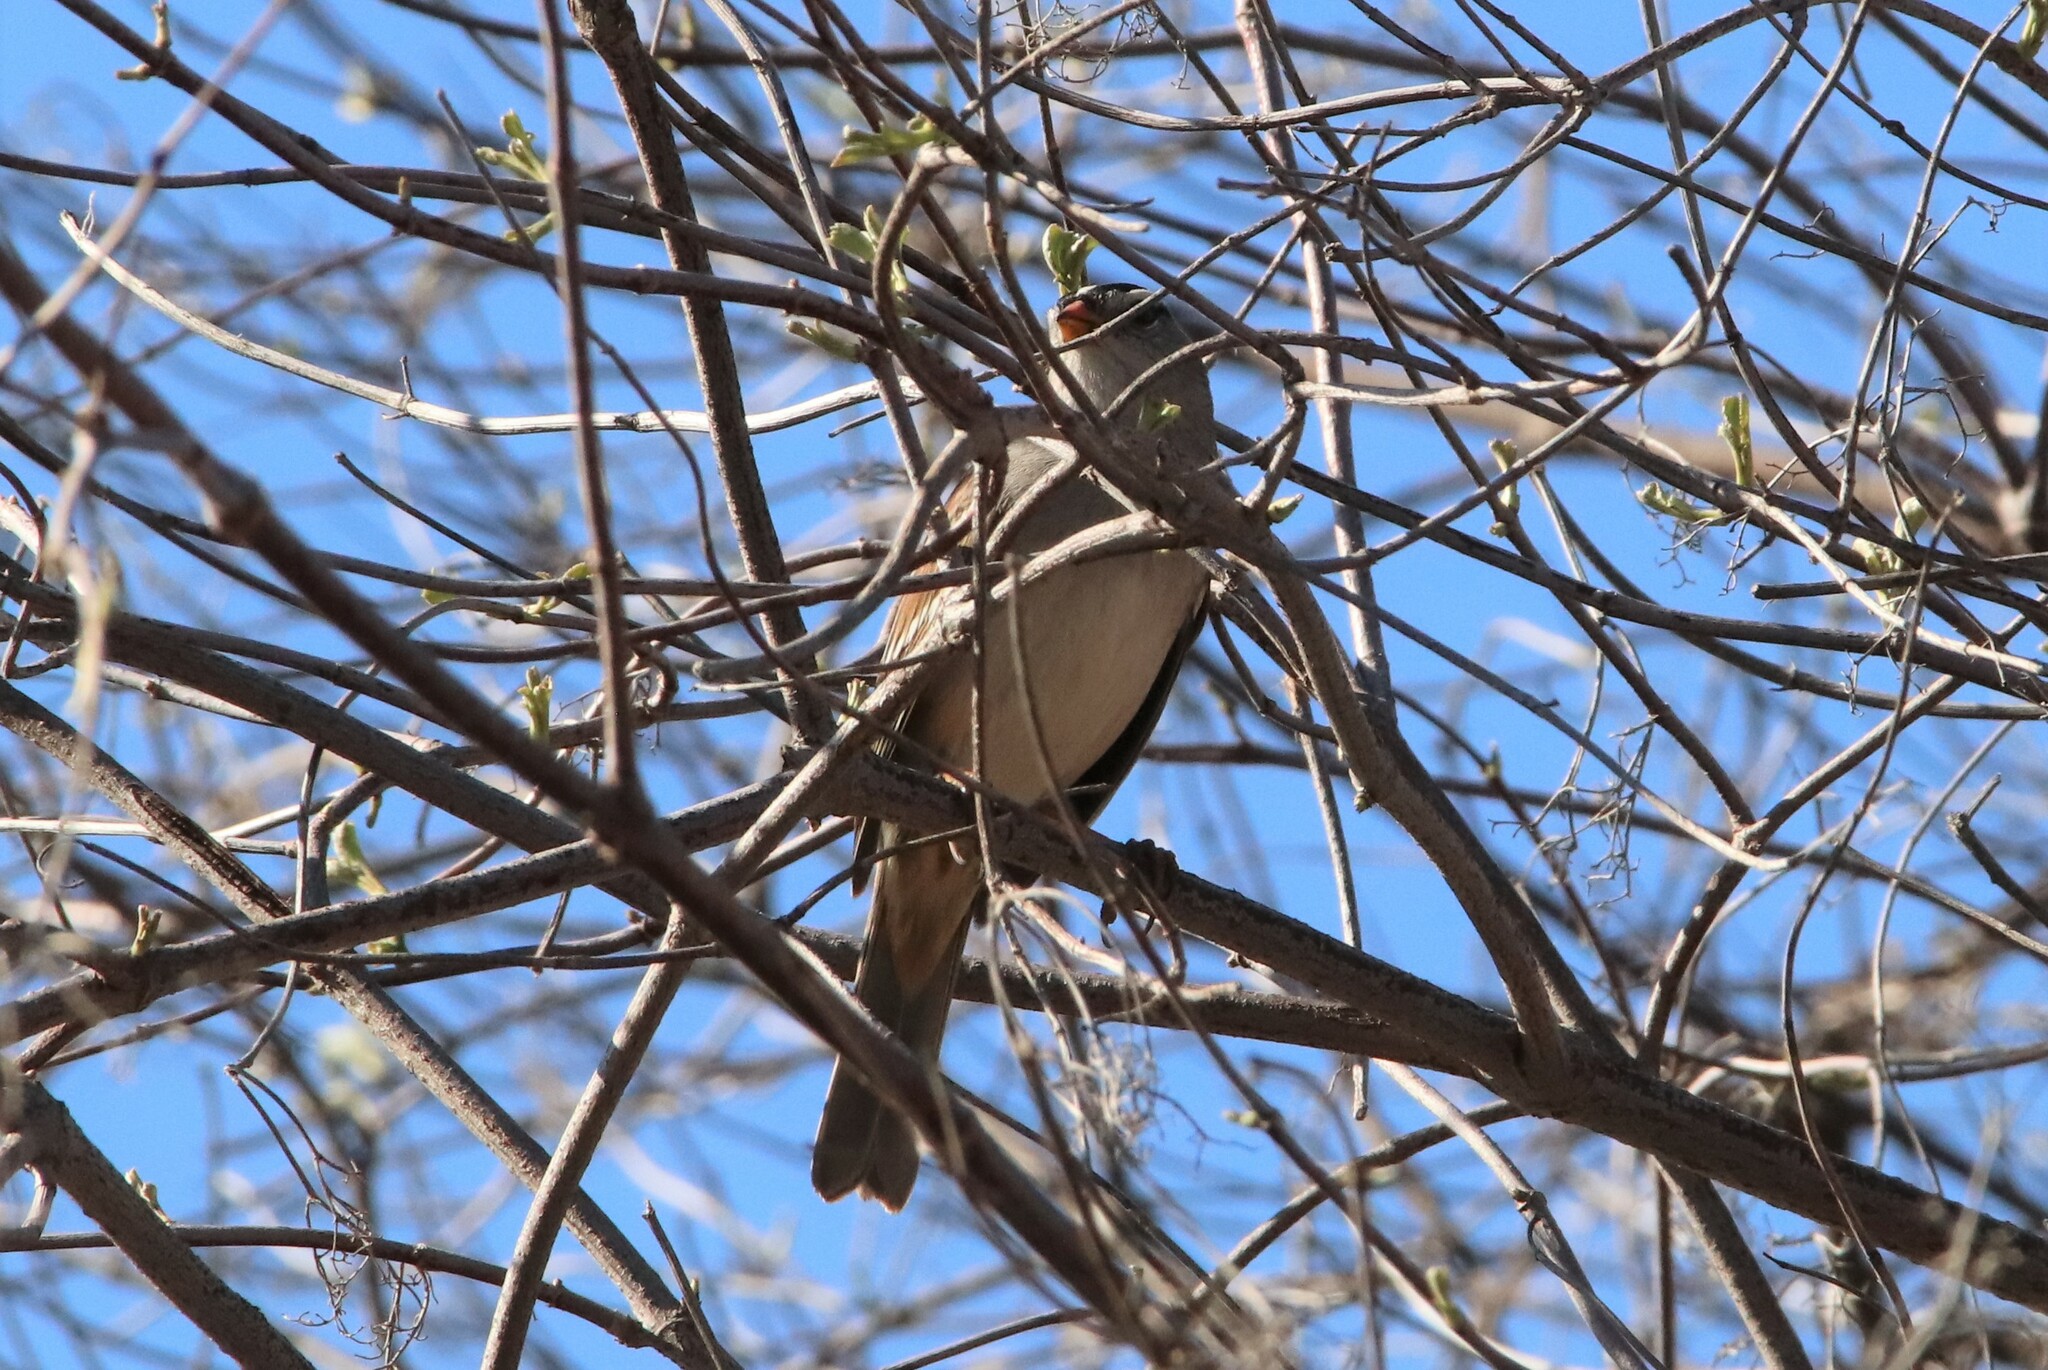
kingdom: Animalia
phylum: Chordata
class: Aves
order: Passeriformes
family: Passerellidae
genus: Zonotrichia
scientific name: Zonotrichia leucophrys
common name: White-crowned sparrow
